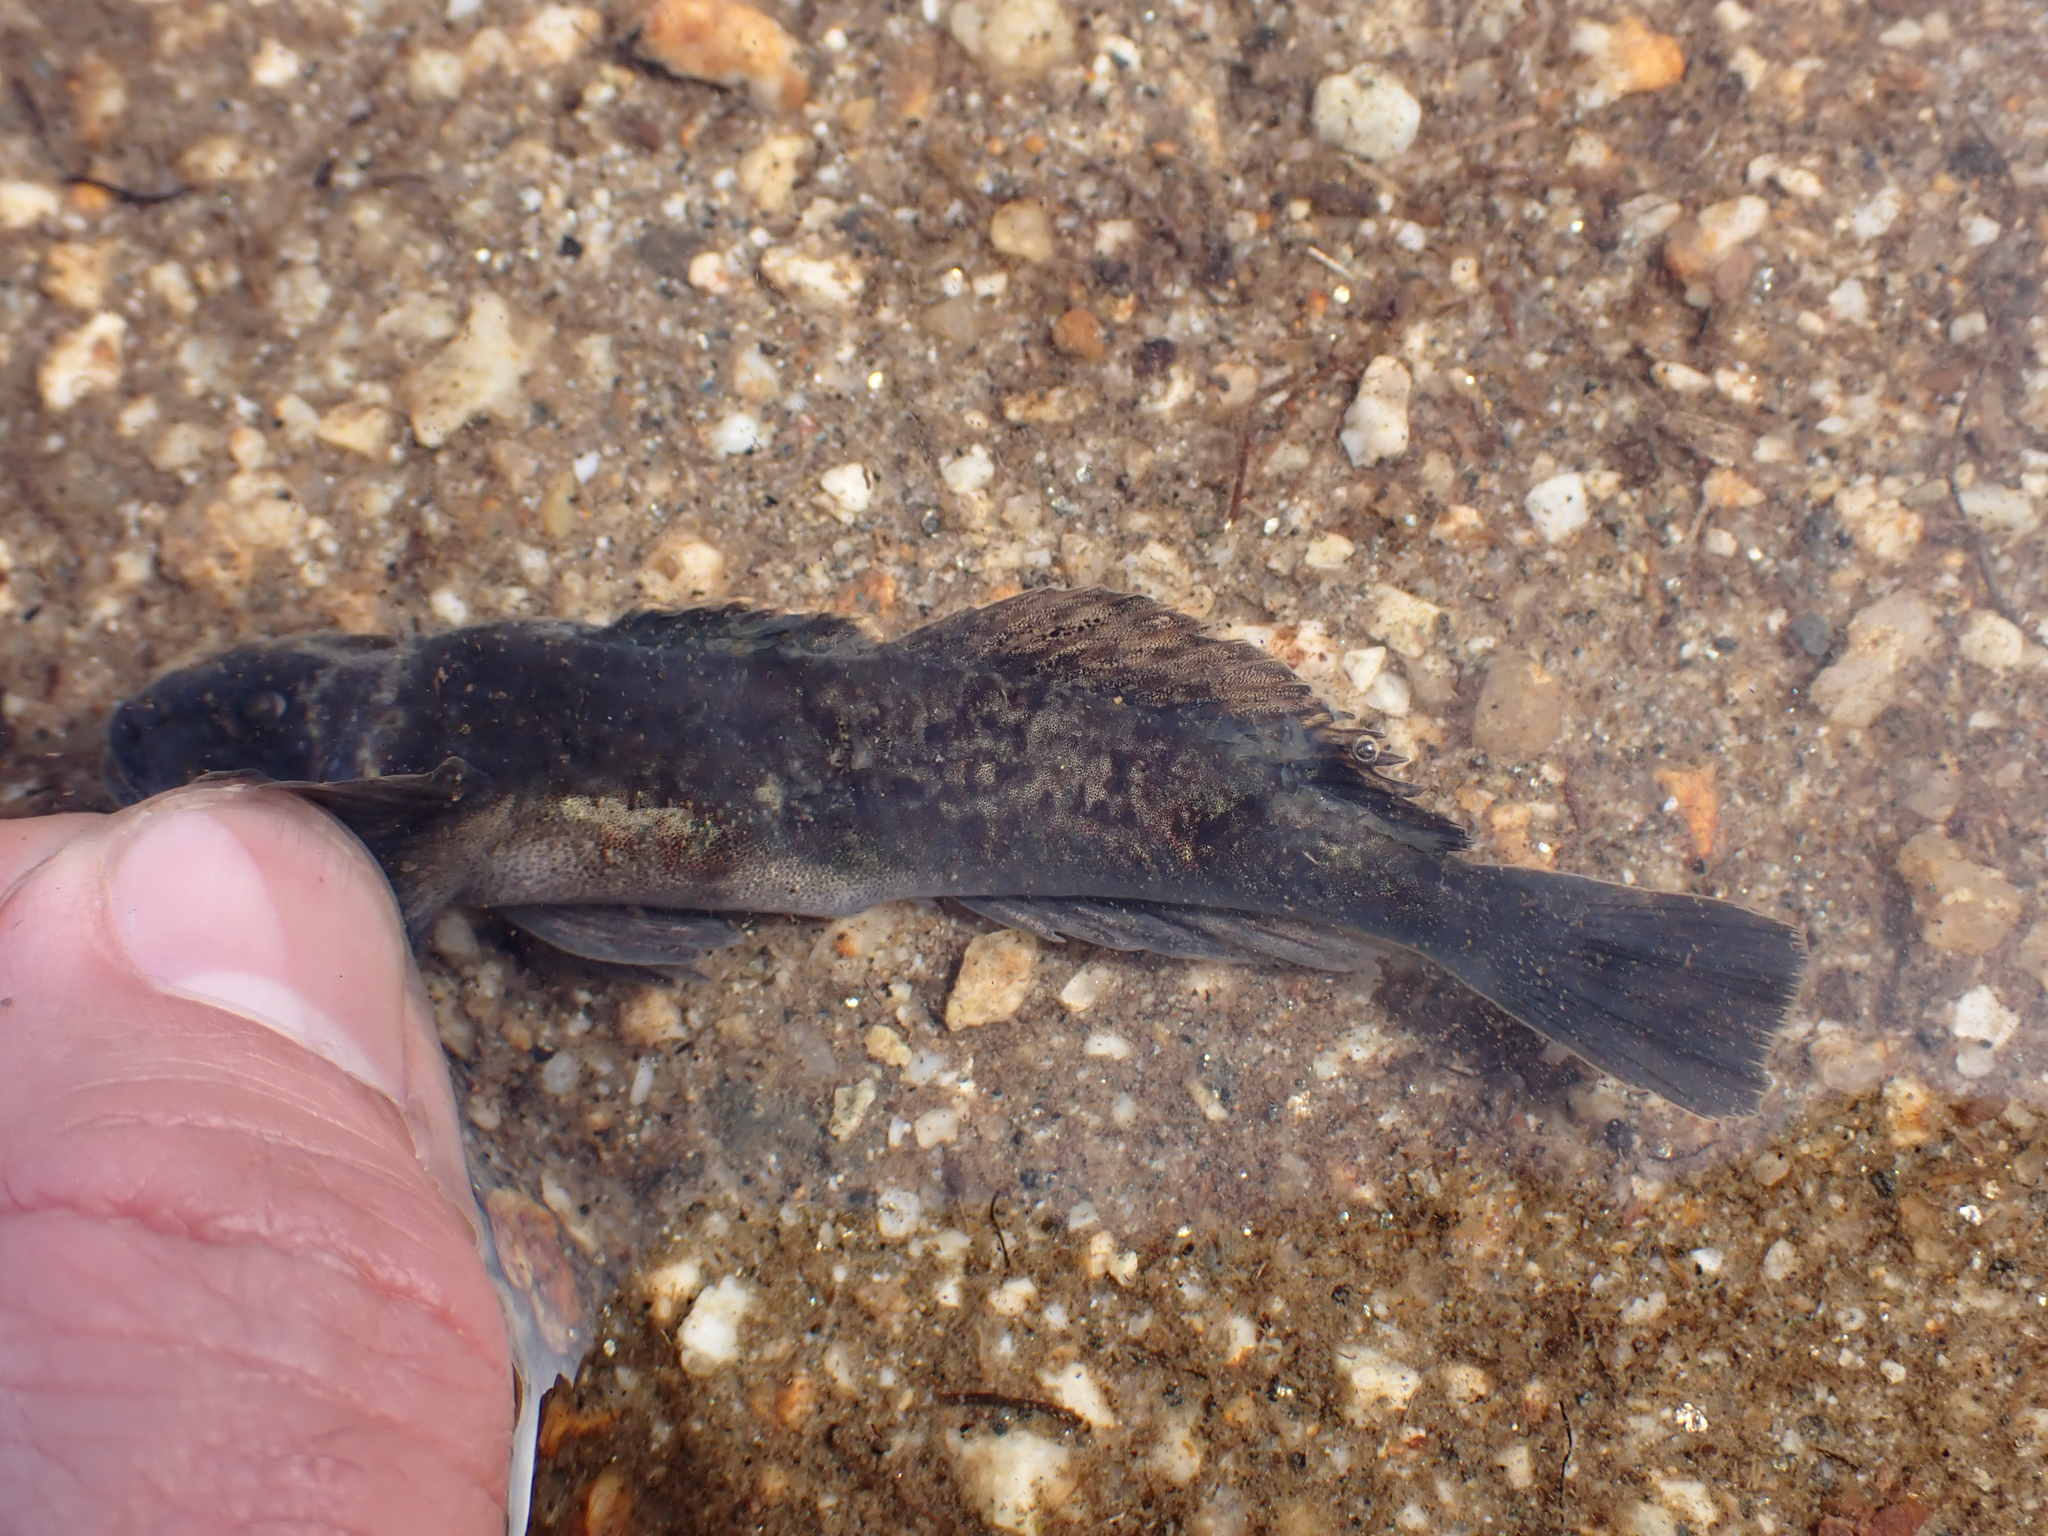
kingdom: Animalia
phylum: Chordata
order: Scorpaeniformes
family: Cottidae
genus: Cottus
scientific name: Cottus cognatus
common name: Slimy sculpin
